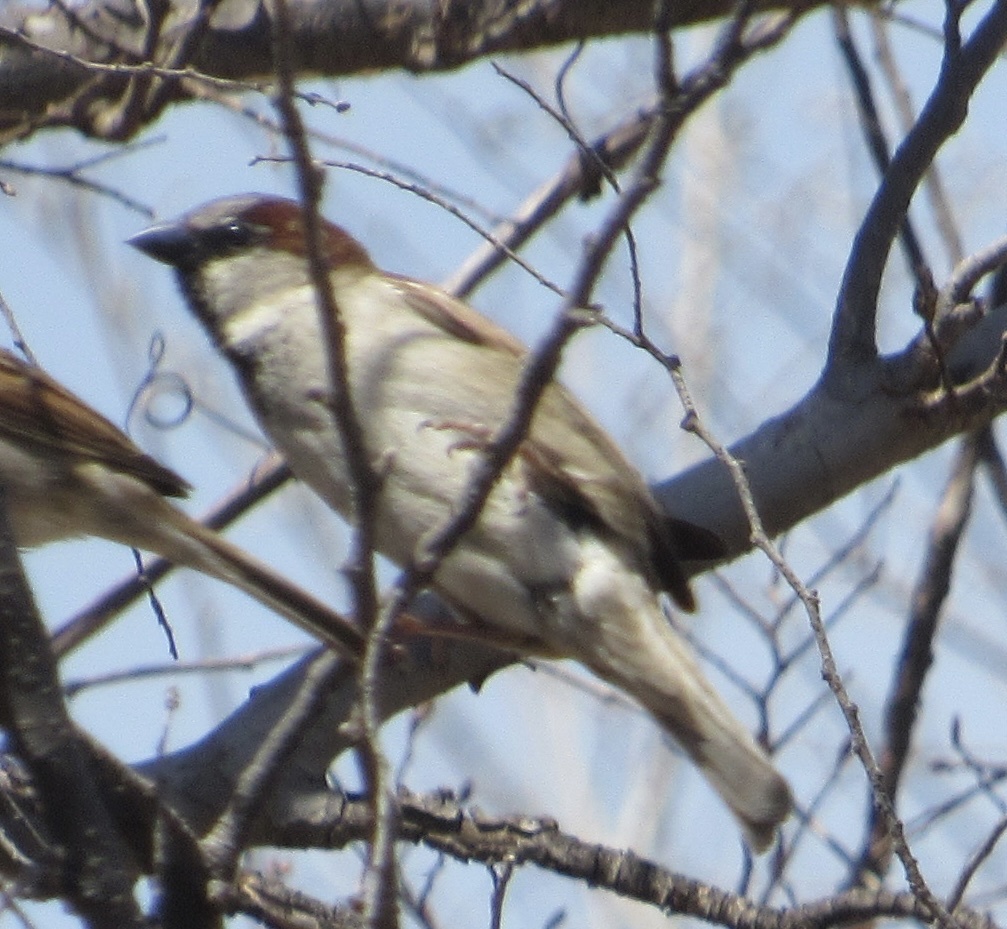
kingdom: Animalia
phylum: Chordata
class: Aves
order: Passeriformes
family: Passeridae
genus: Passer
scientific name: Passer domesticus
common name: House sparrow
